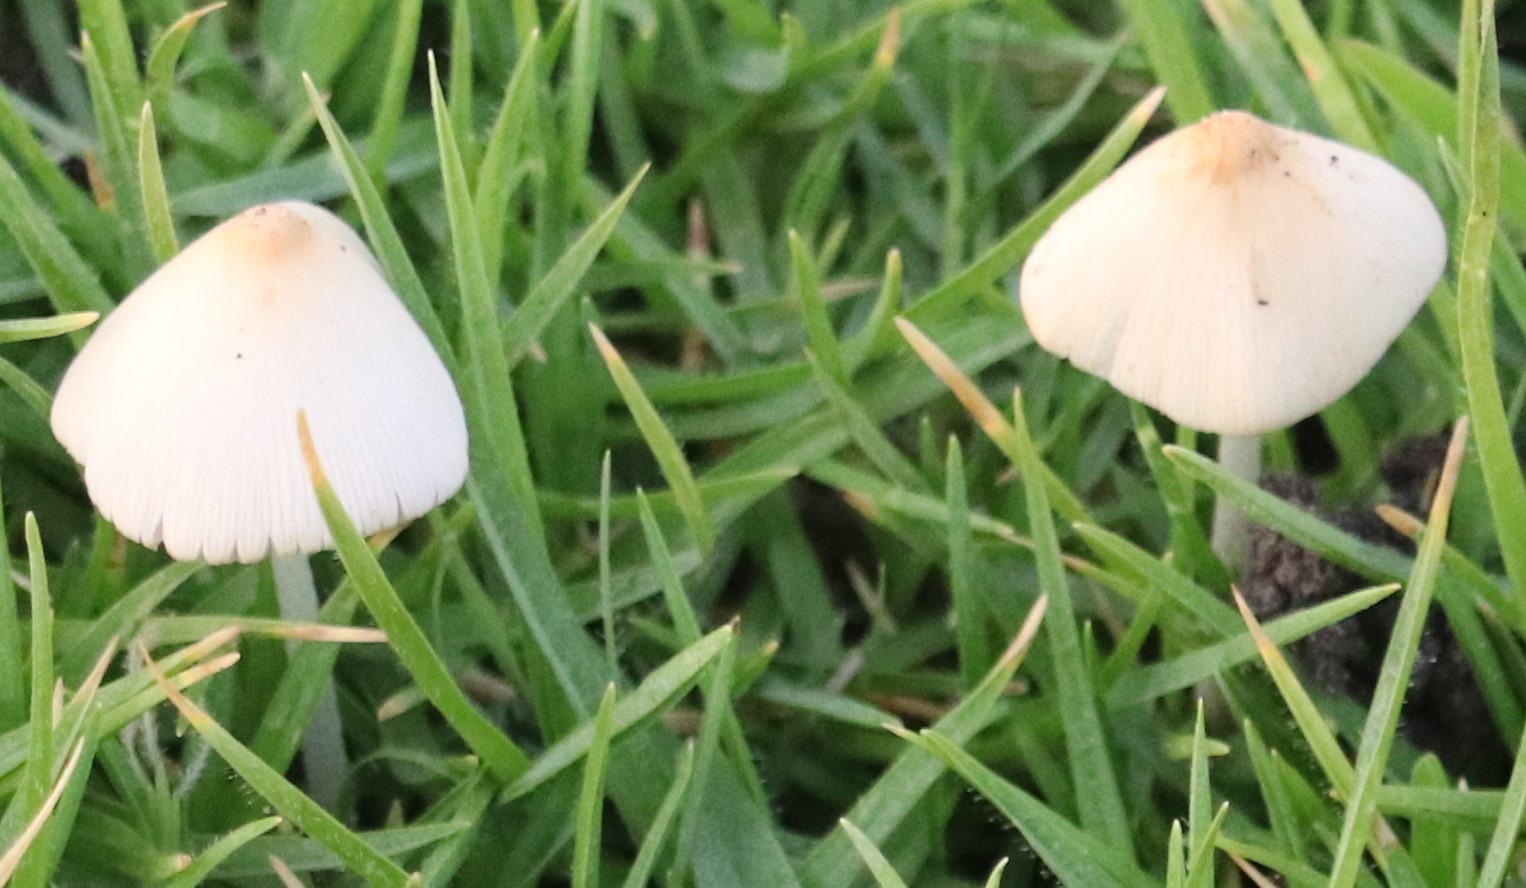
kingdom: Fungi
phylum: Basidiomycota
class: Agaricomycetes
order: Agaricales
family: Bolbitiaceae
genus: Conocybe
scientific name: Conocybe apala
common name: Milky conecap
